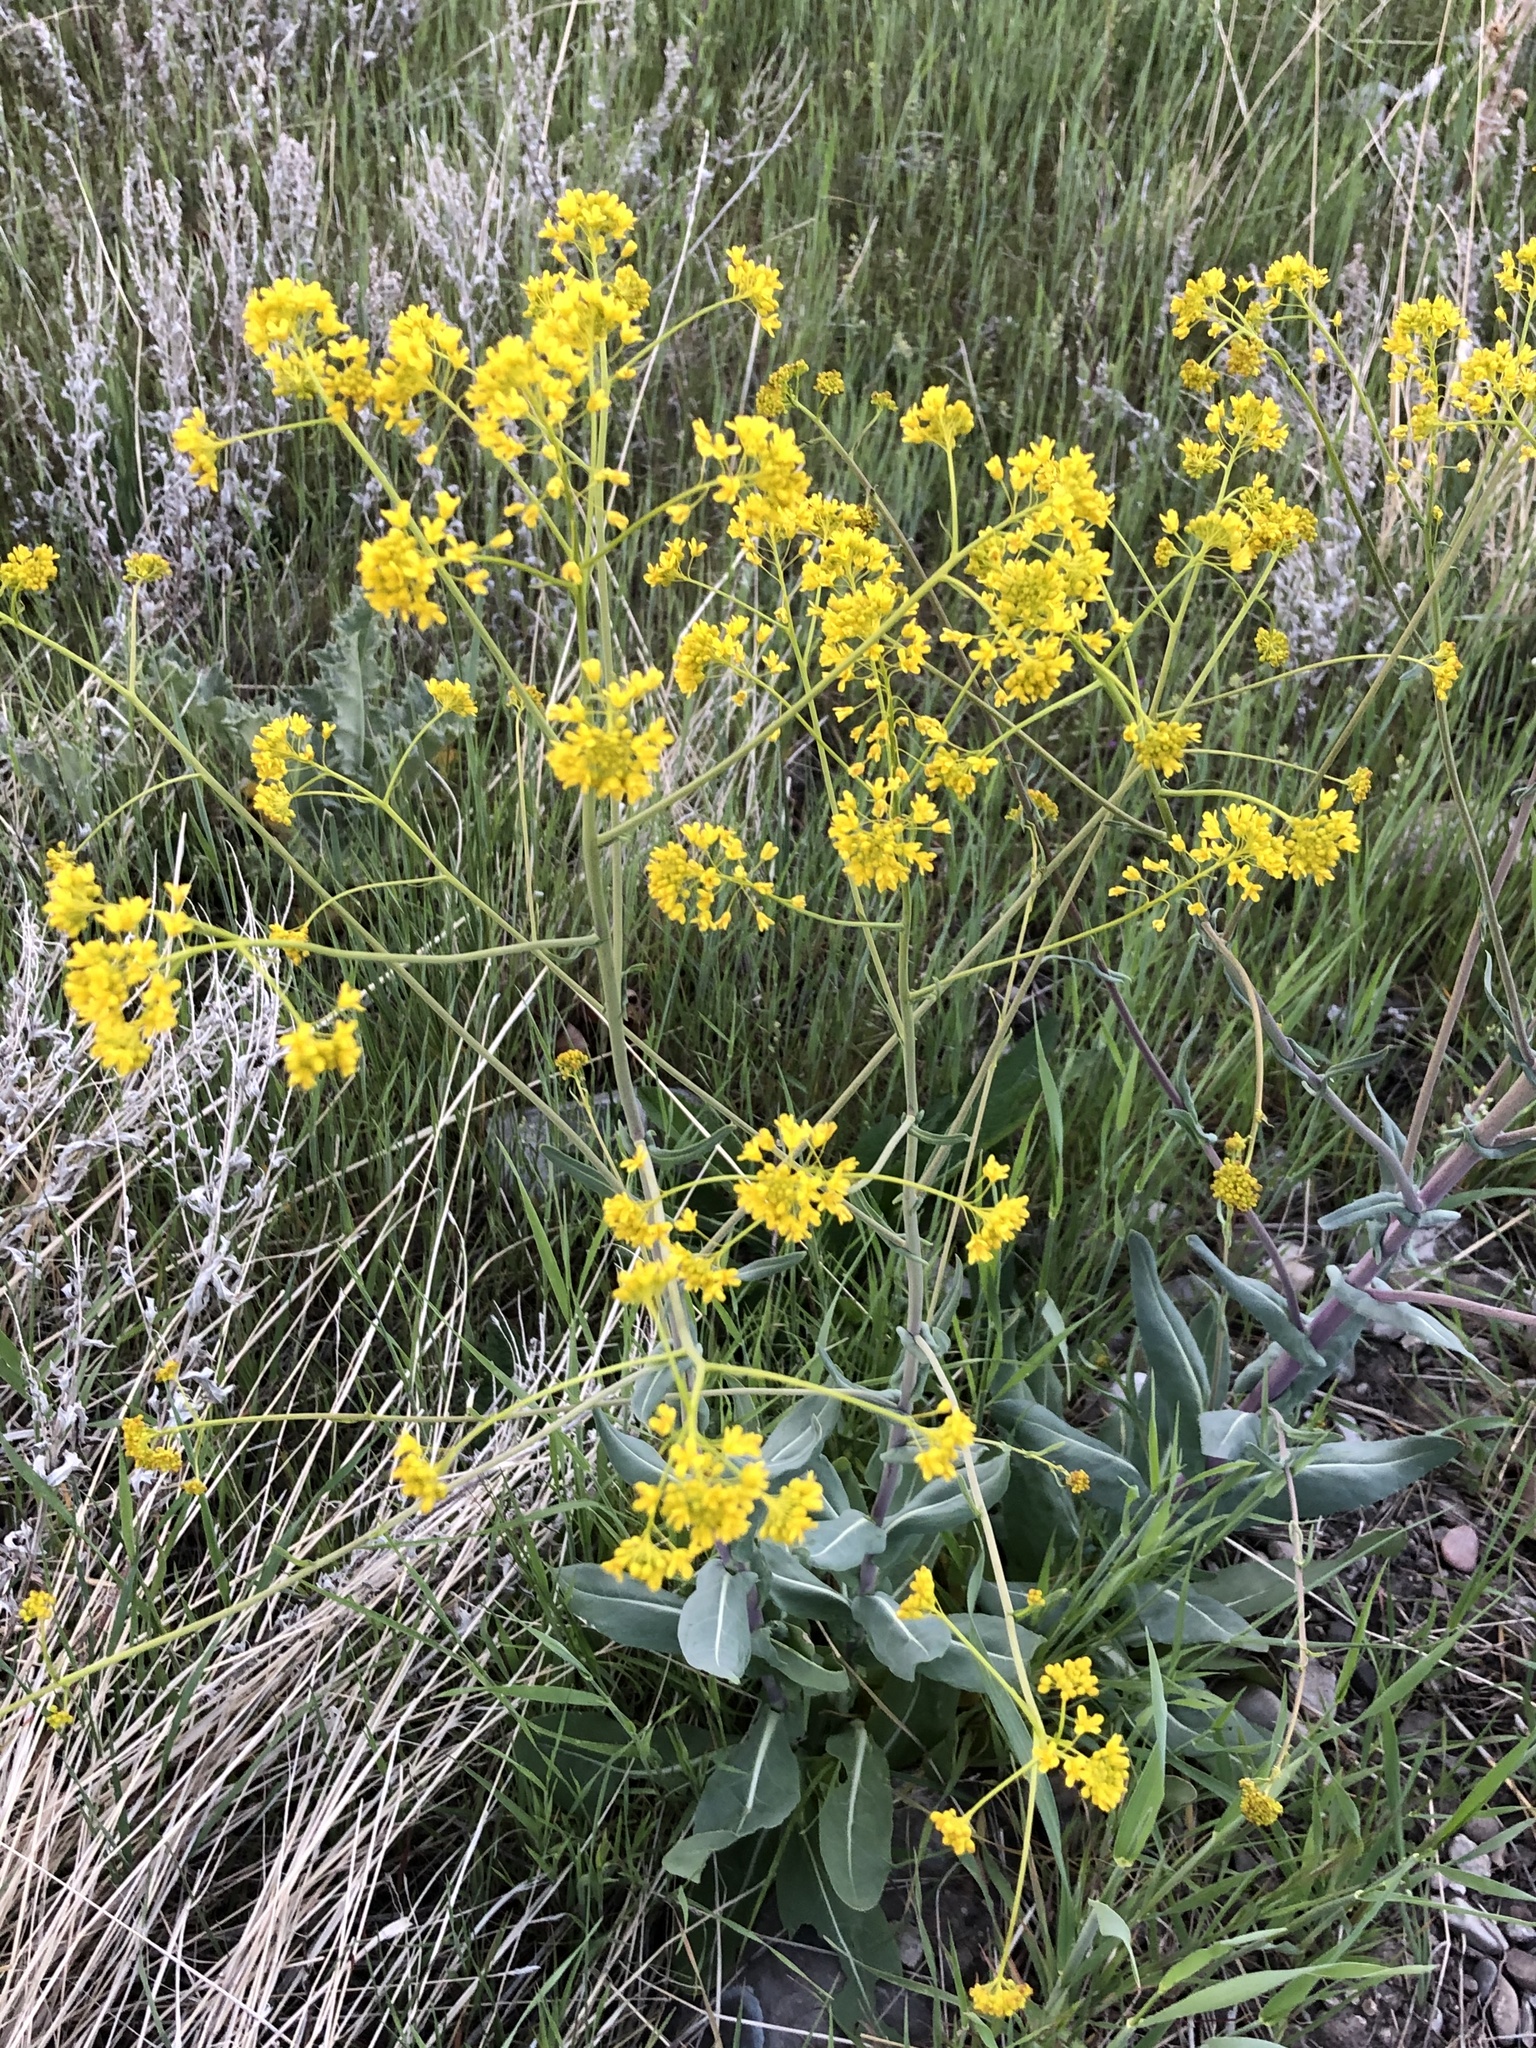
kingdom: Plantae
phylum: Tracheophyta
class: Magnoliopsida
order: Brassicales
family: Brassicaceae
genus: Isatis
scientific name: Isatis tinctoria
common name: Woad
